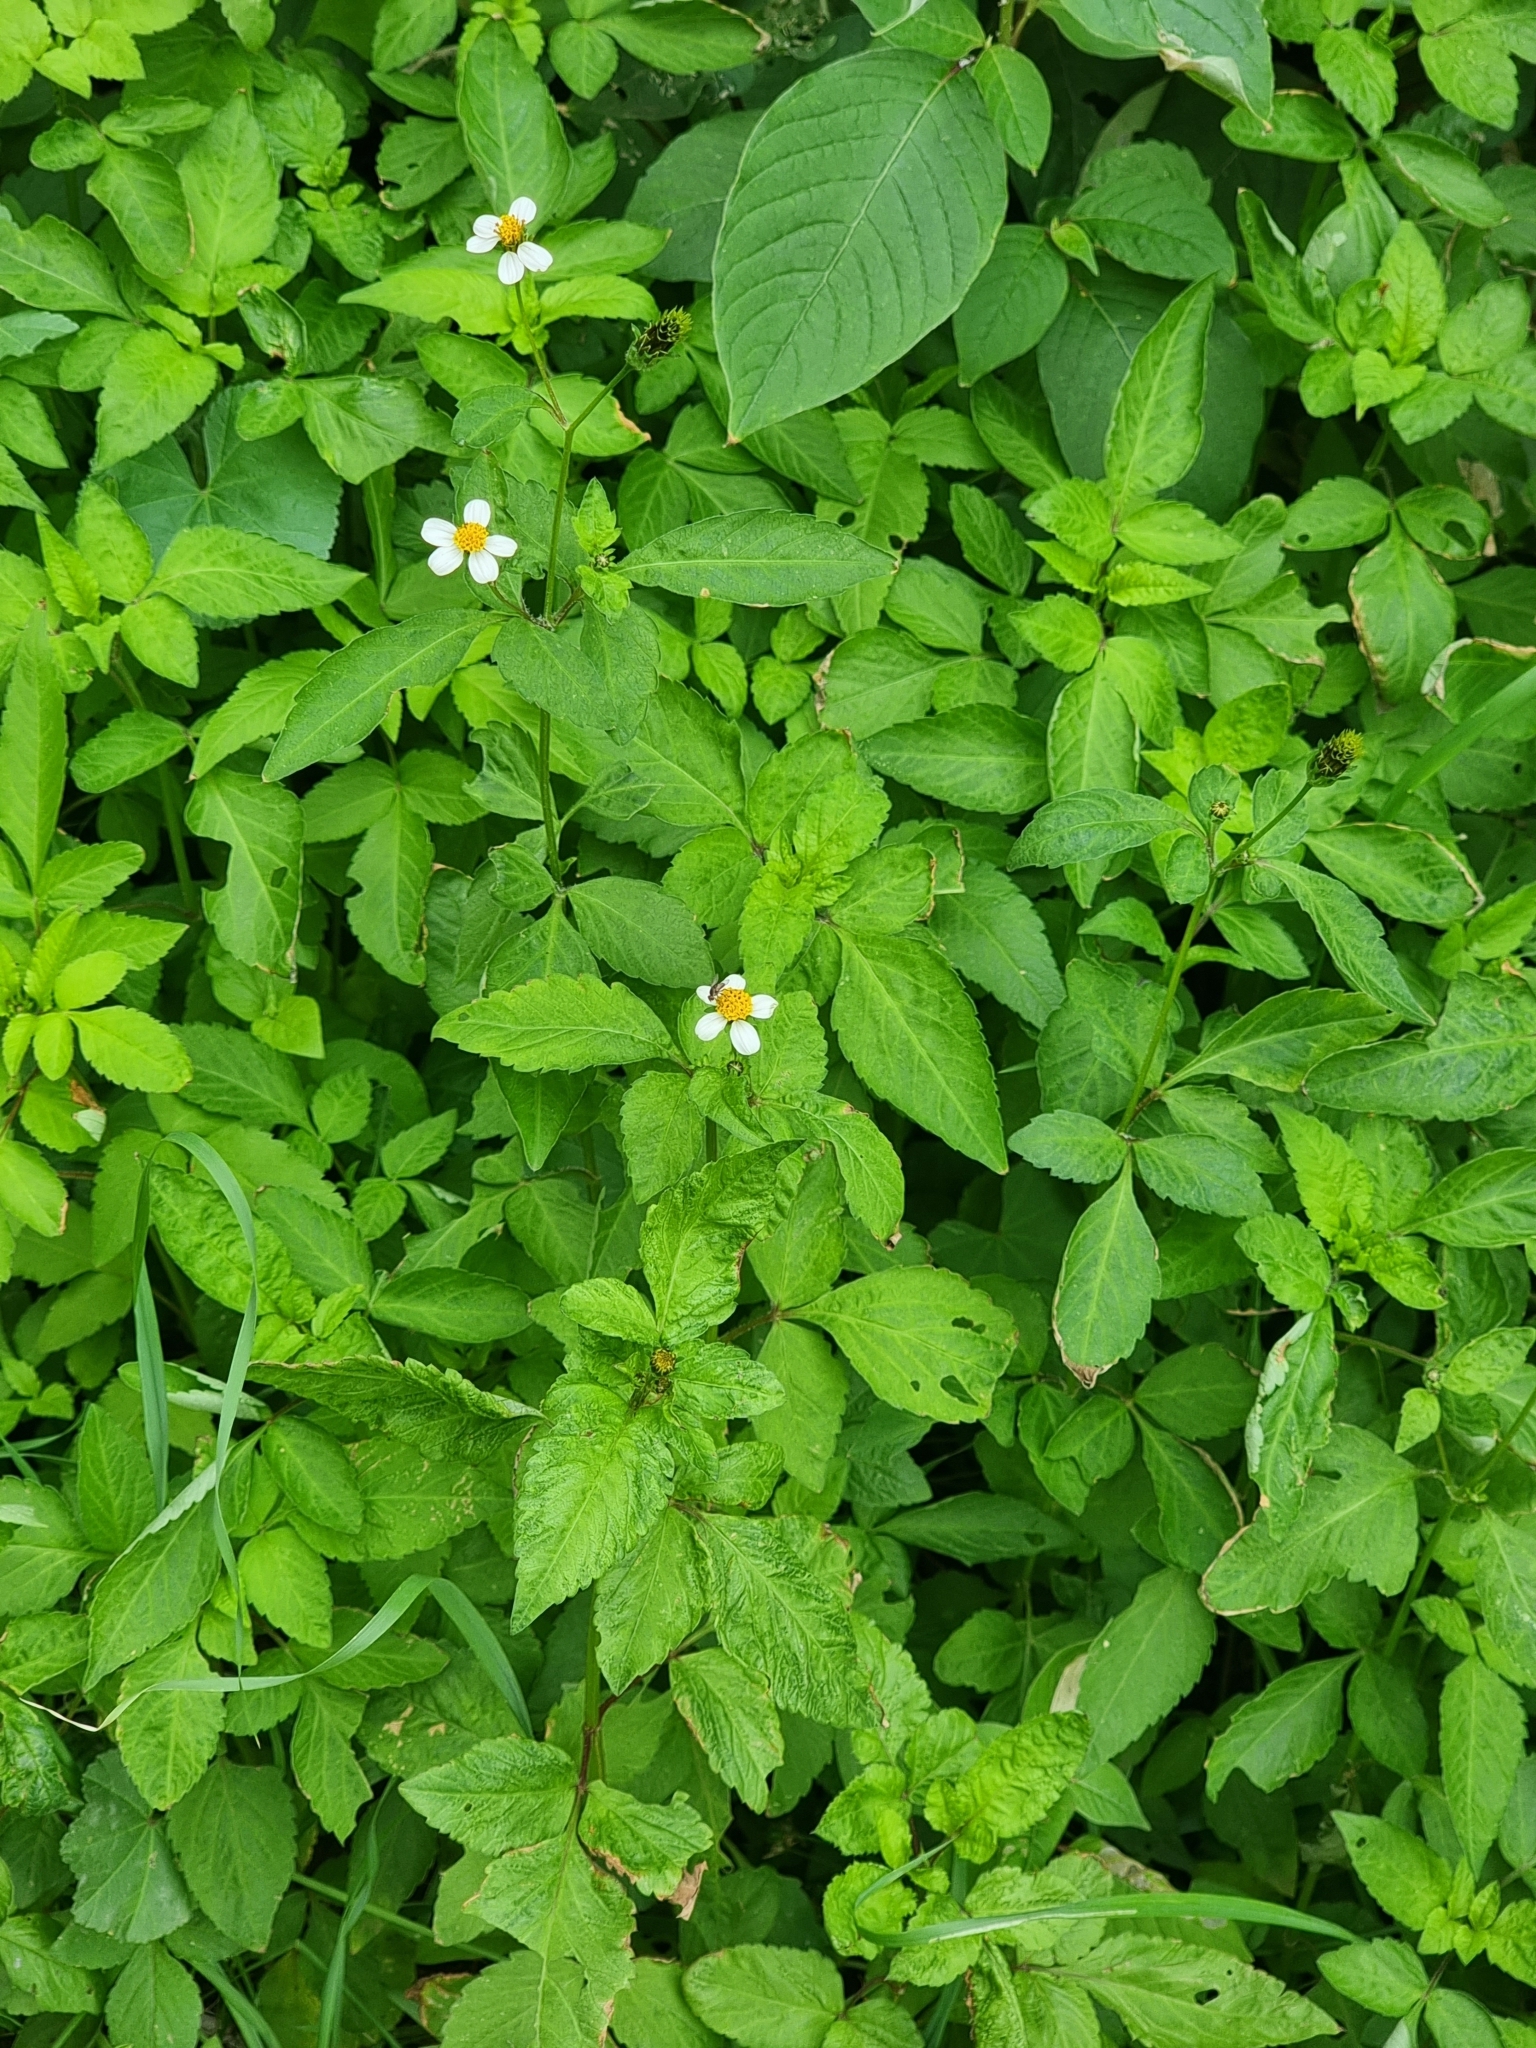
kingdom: Plantae
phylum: Tracheophyta
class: Magnoliopsida
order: Asterales
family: Asteraceae
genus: Bidens
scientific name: Bidens pilosa
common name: Black-jack
